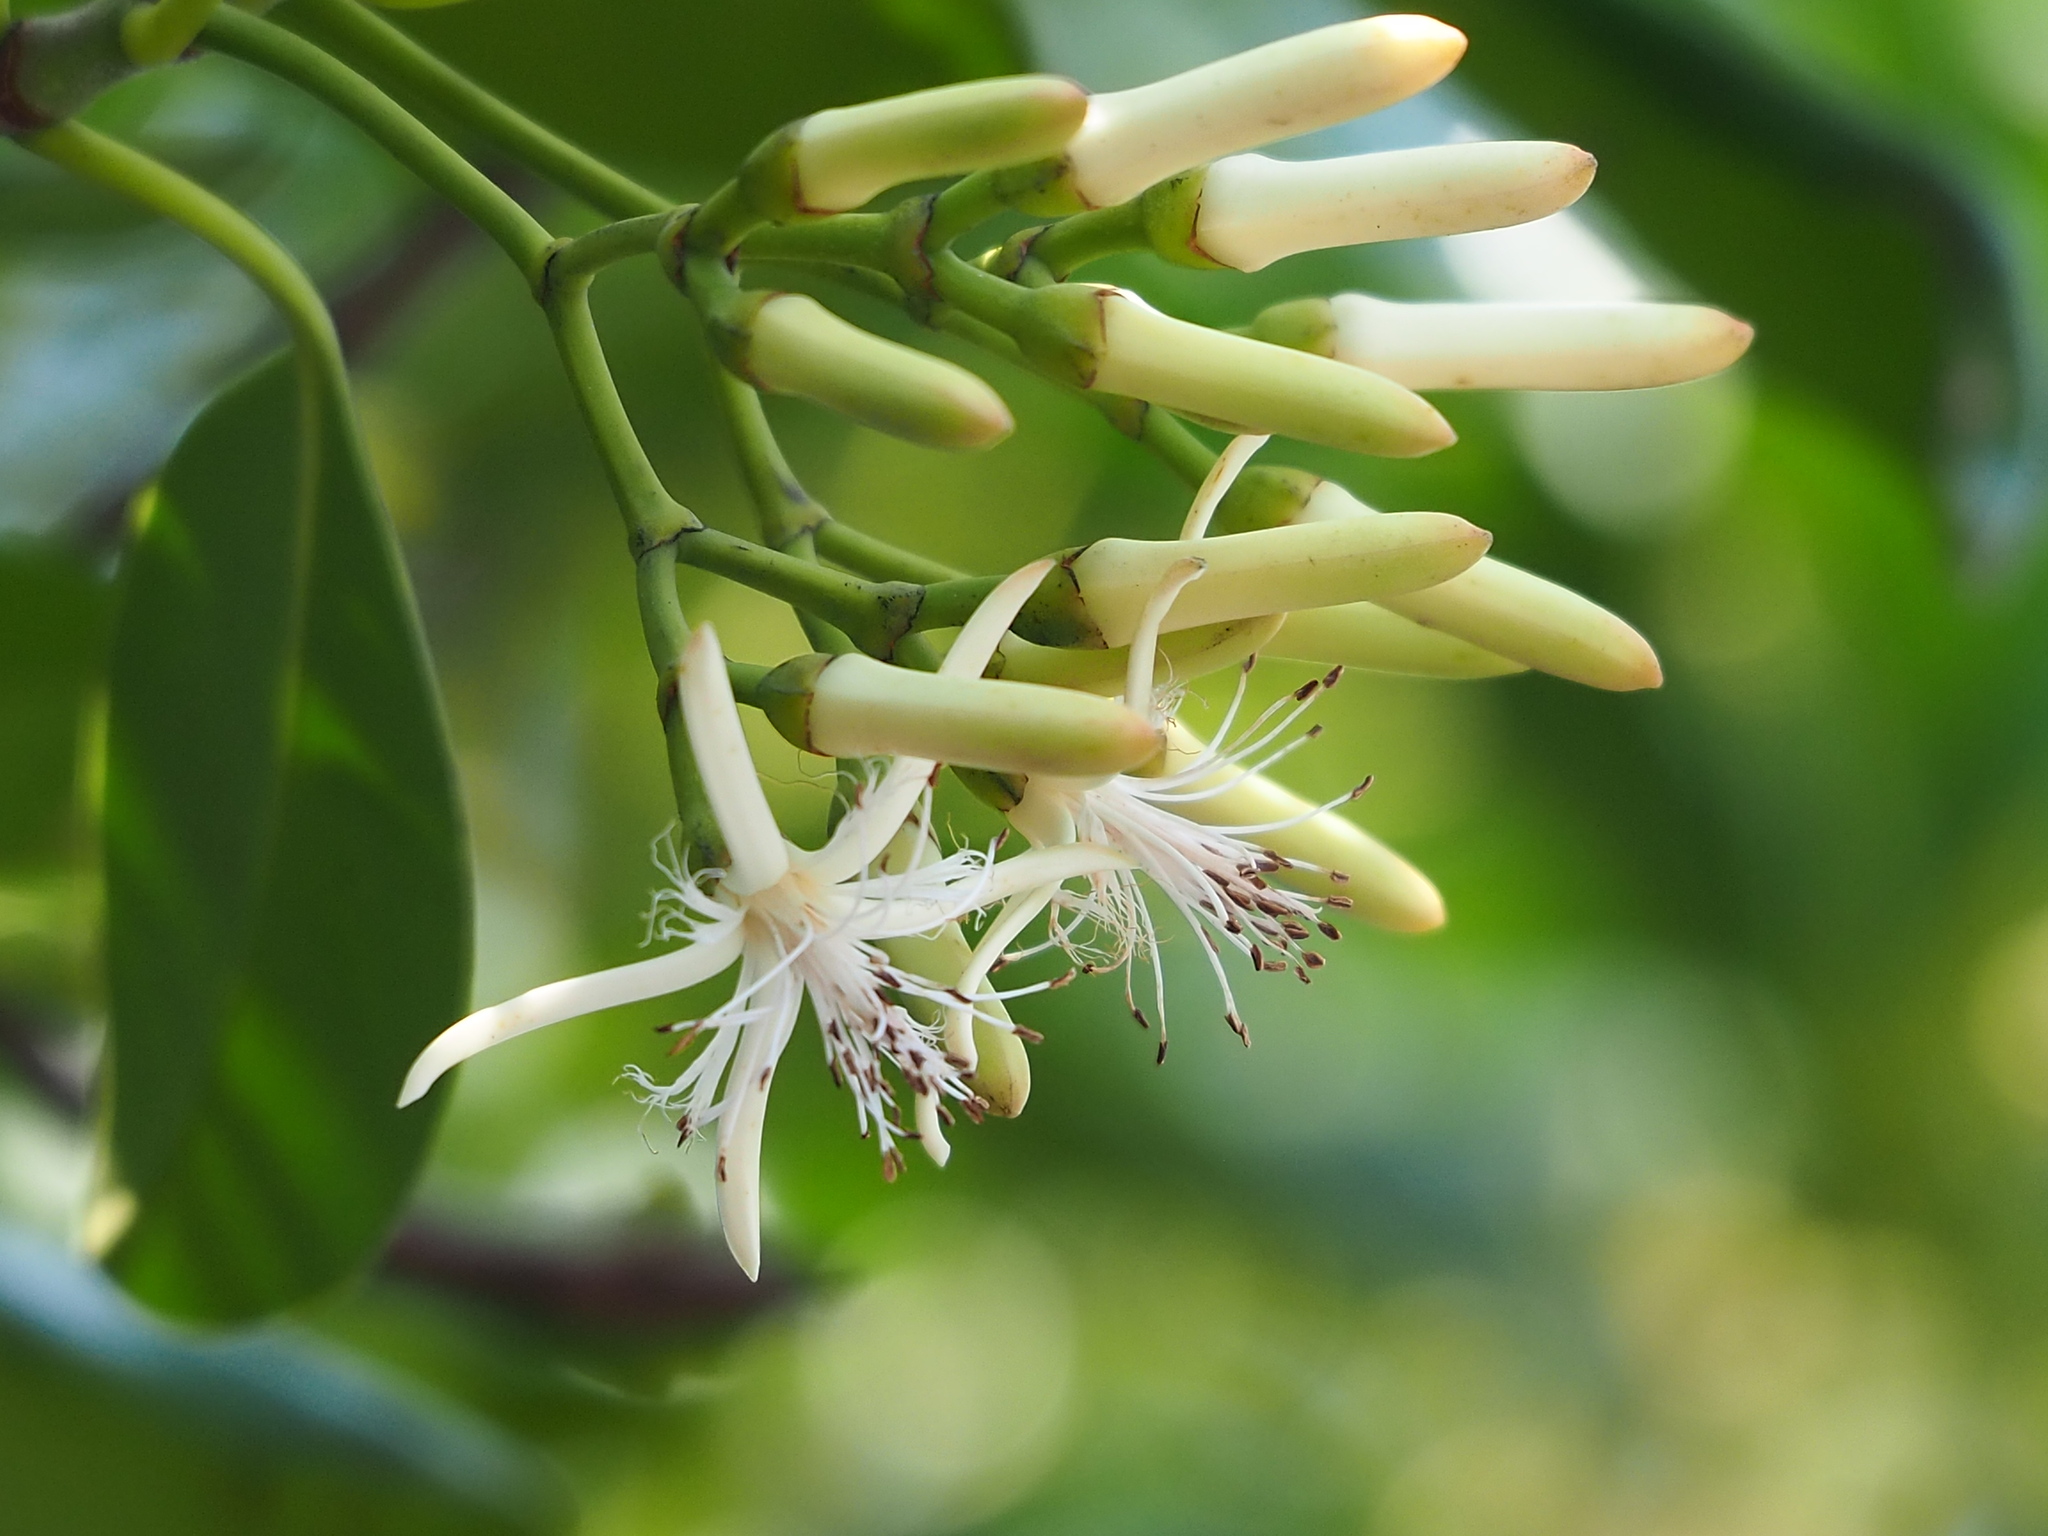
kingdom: Plantae
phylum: Tracheophyta
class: Magnoliopsida
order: Malpighiales
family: Rhizophoraceae
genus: Kandelia
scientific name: Kandelia obovata
